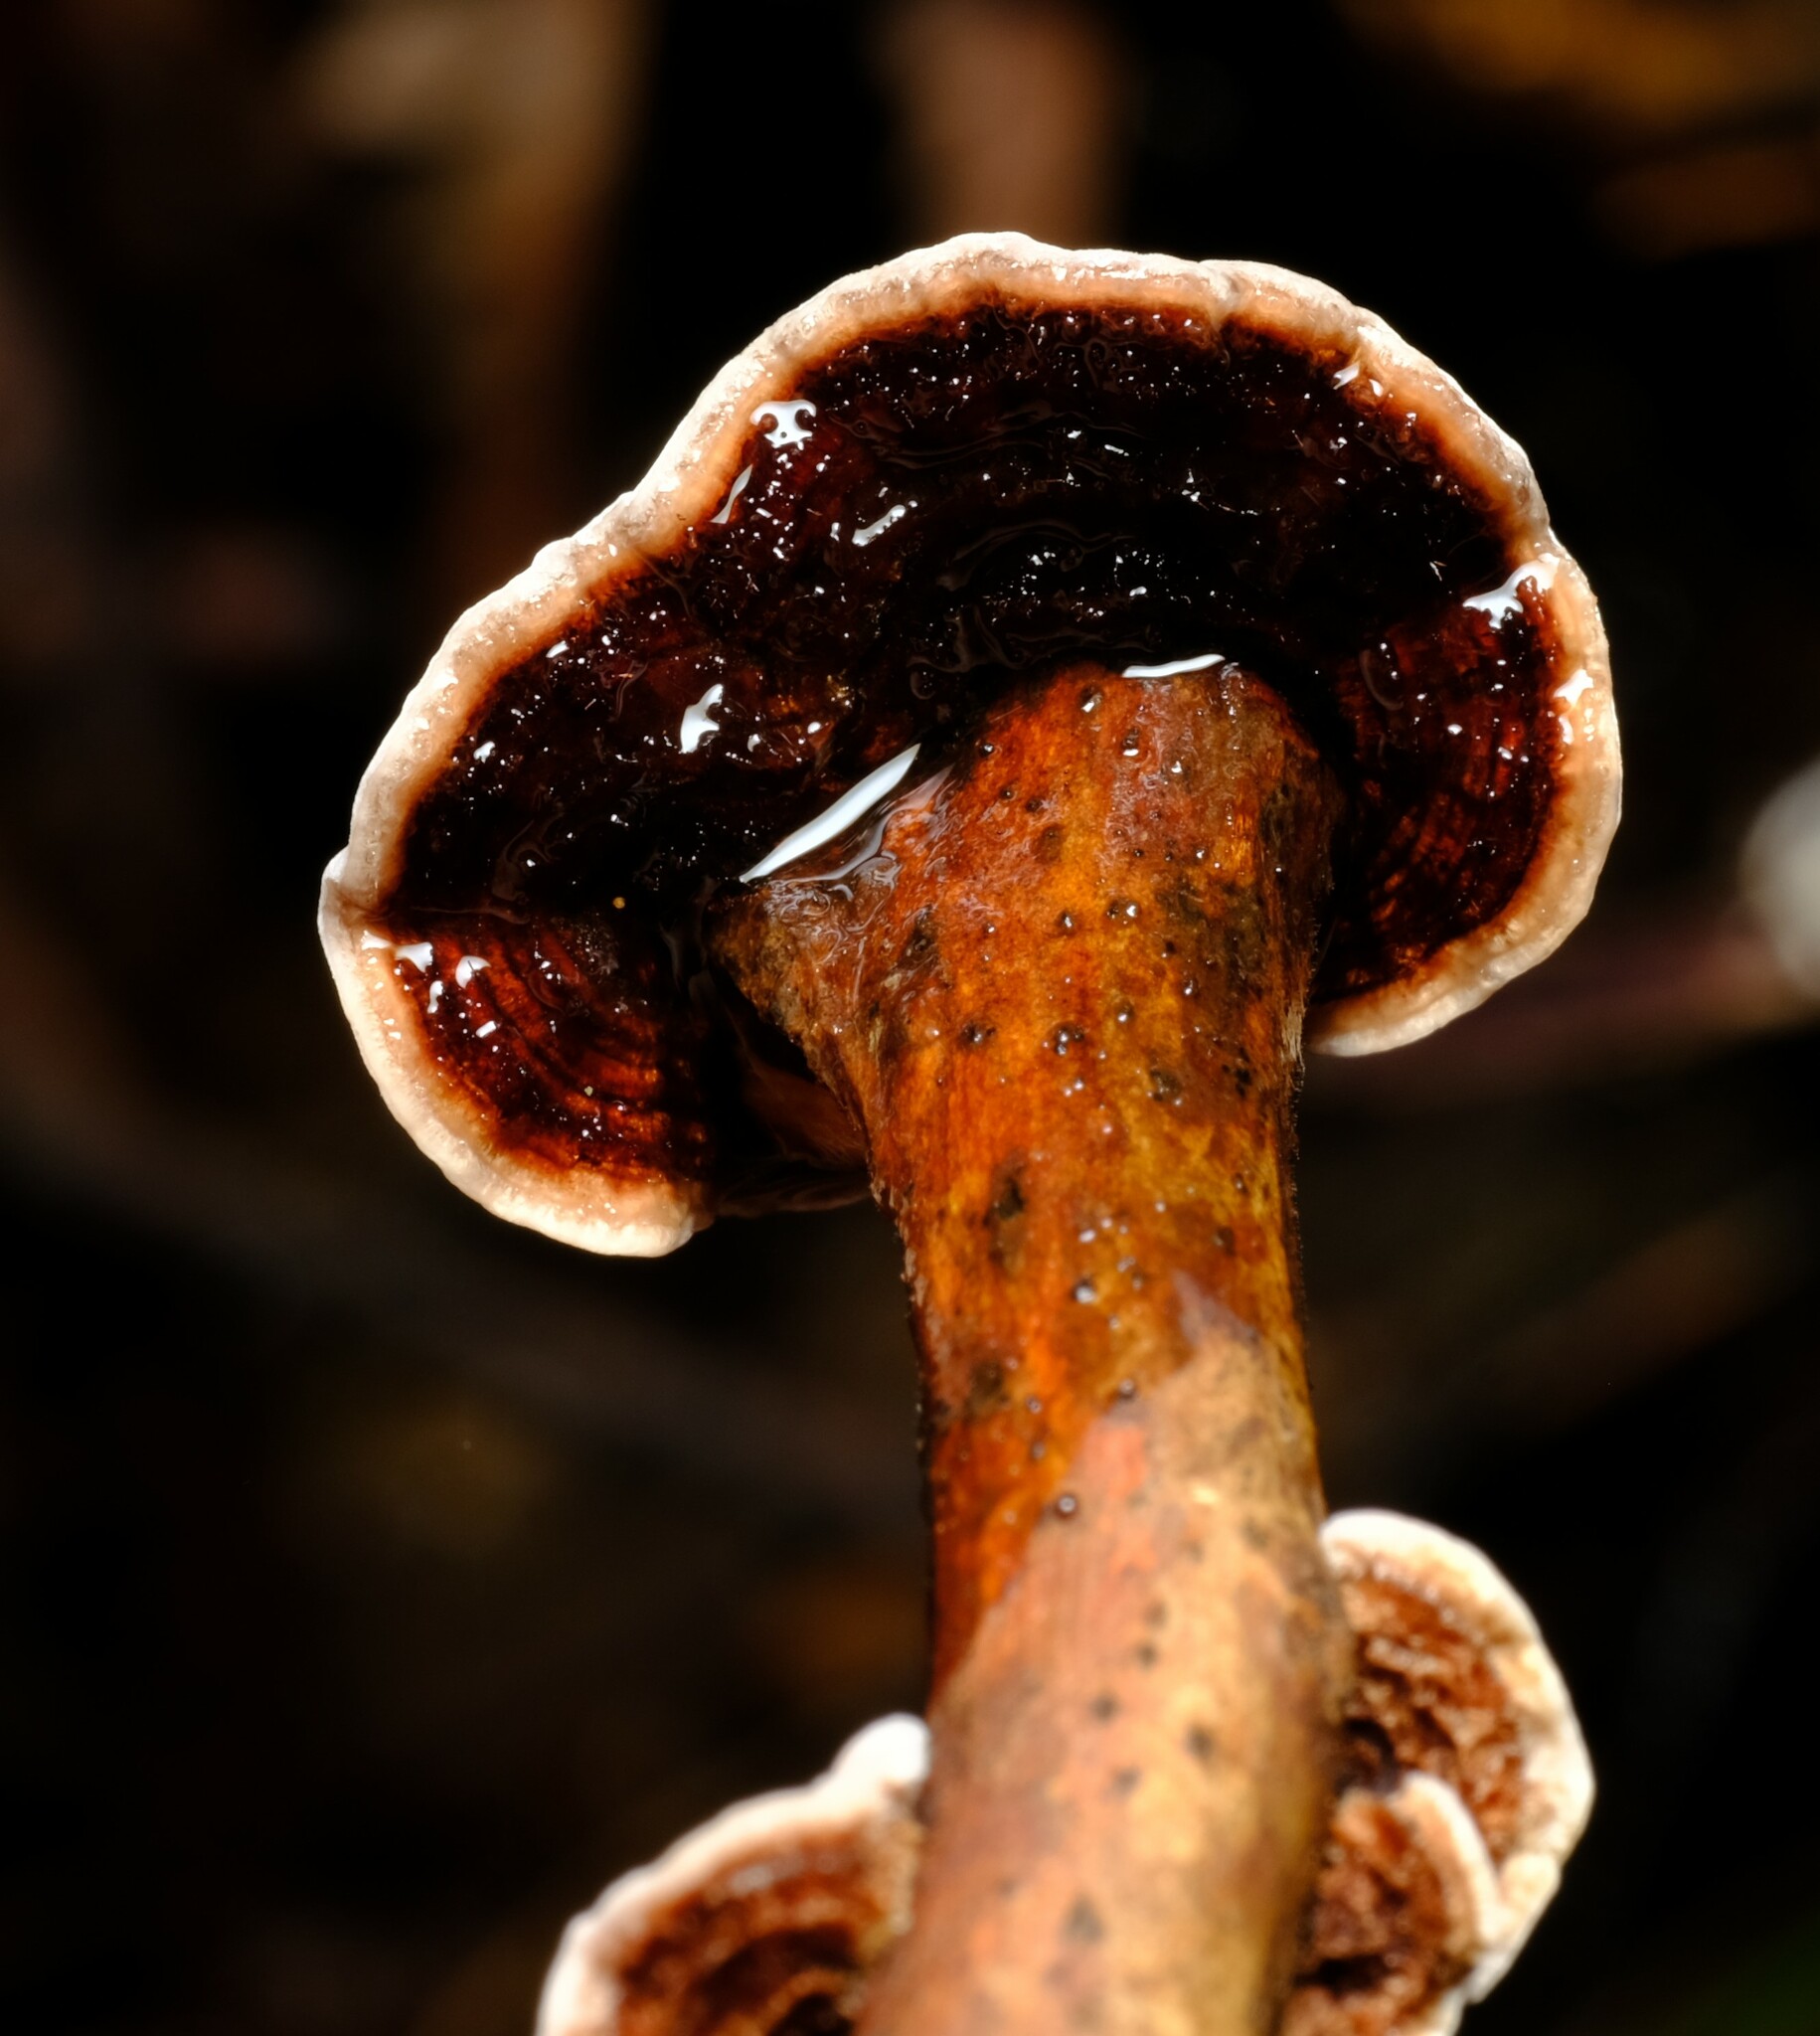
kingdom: Fungi
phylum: Basidiomycota
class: Agaricomycetes
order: Russulales
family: Stereaceae
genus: Xylobolus
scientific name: Xylobolus illudens
